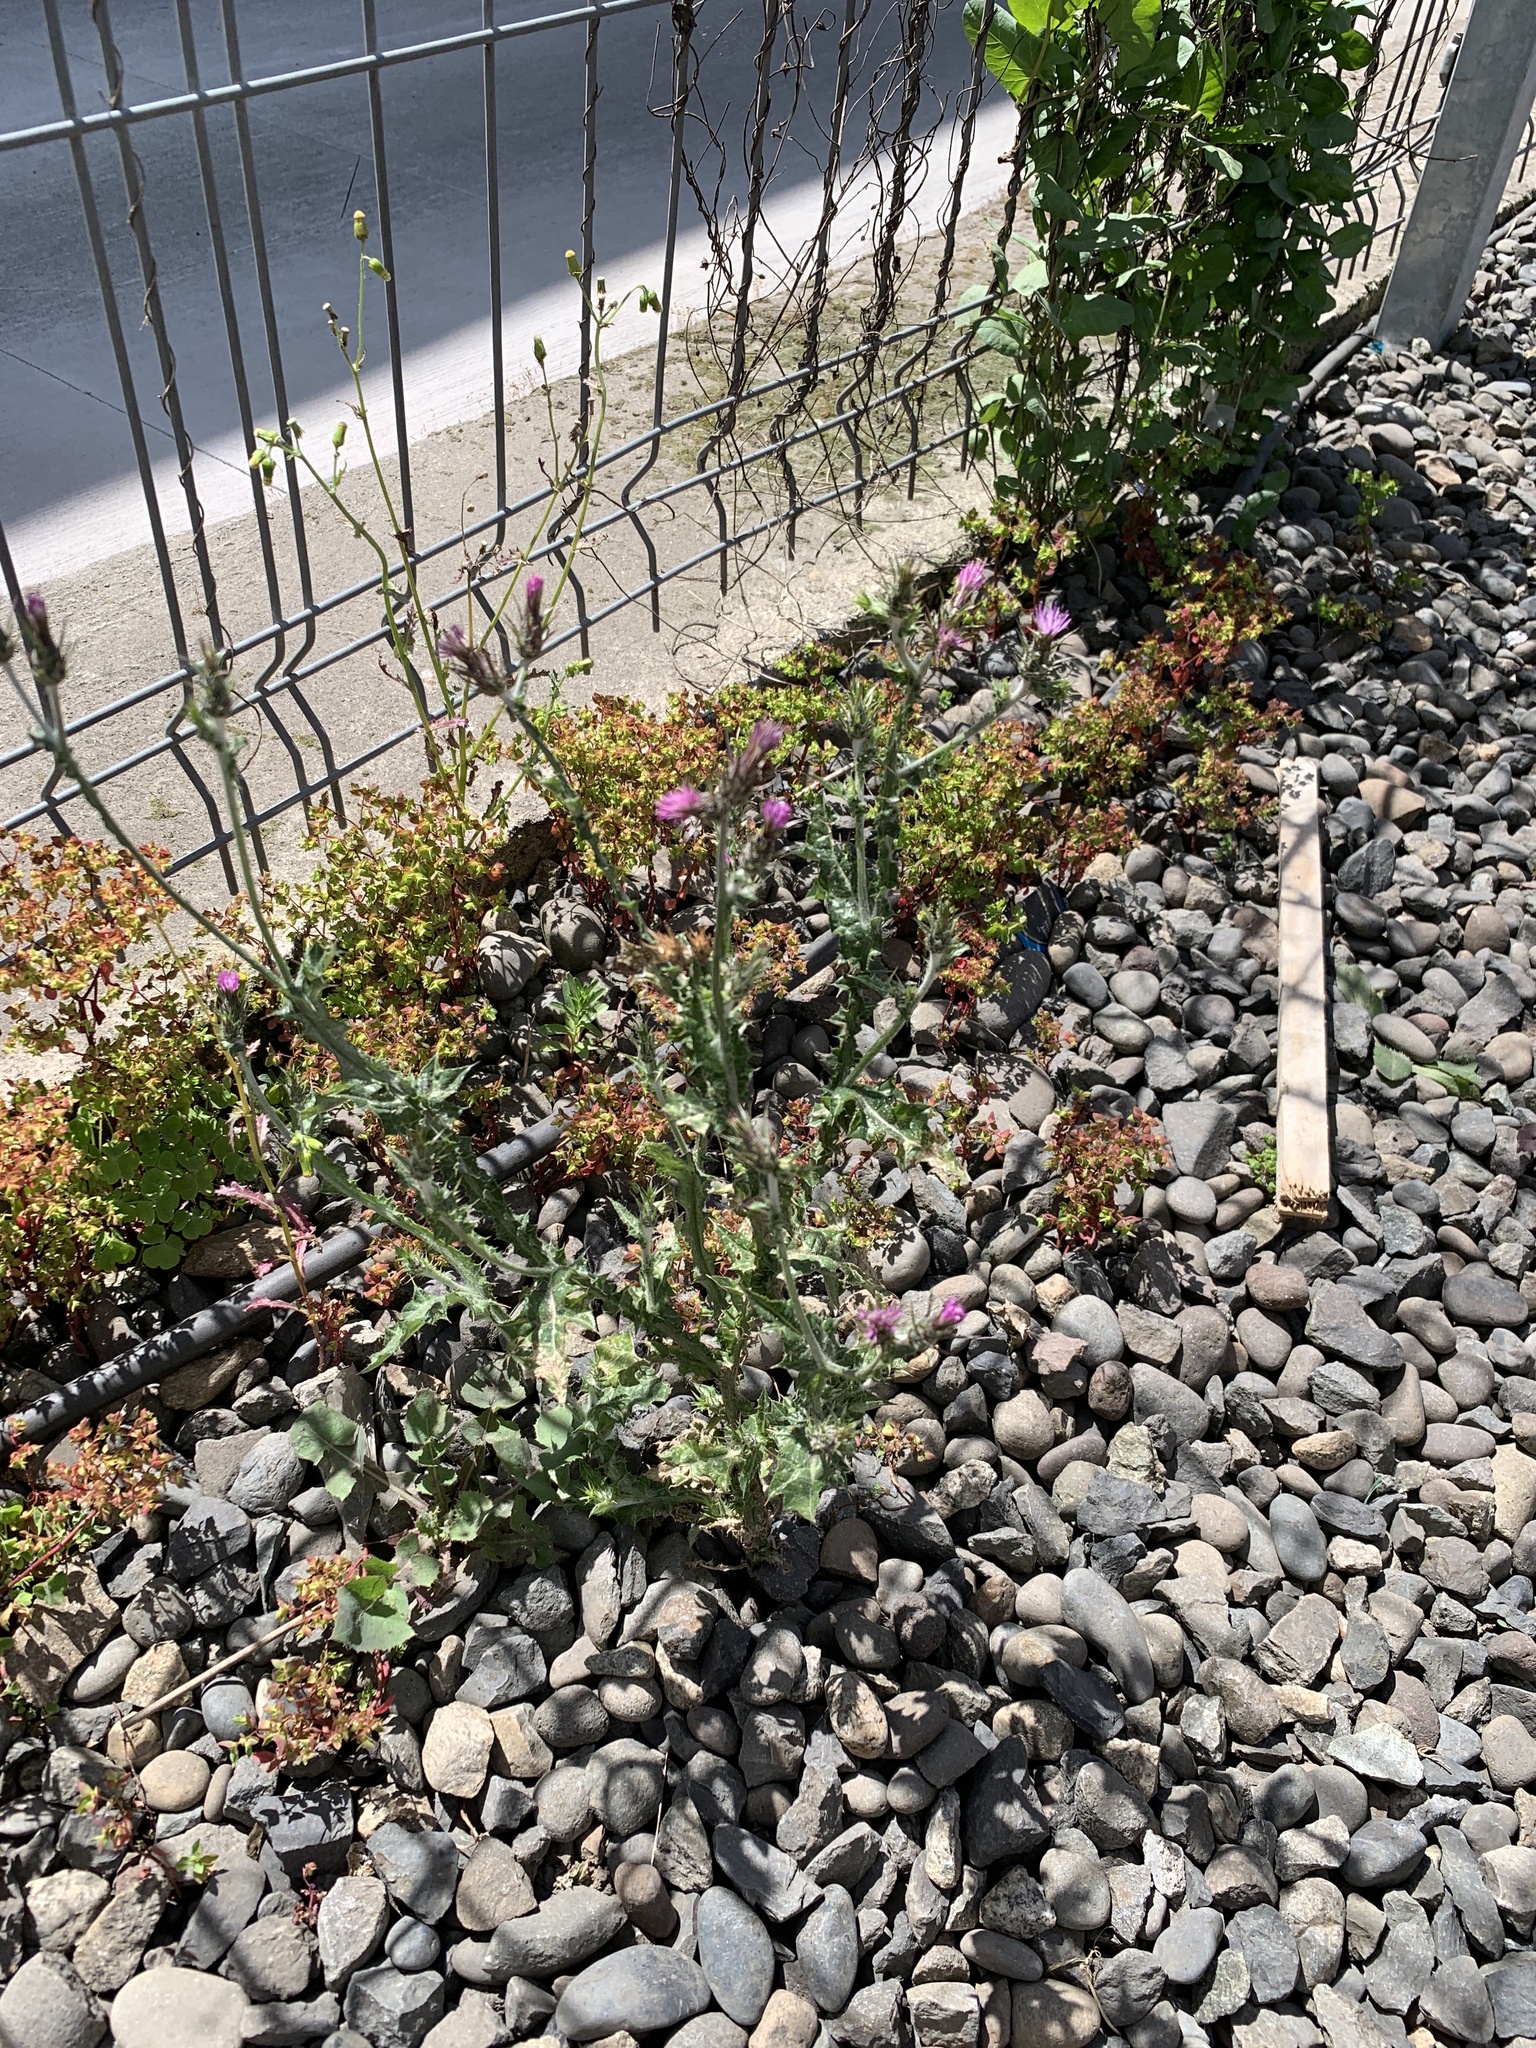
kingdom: Plantae
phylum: Tracheophyta
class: Magnoliopsida
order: Asterales
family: Asteraceae
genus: Carduus
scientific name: Carduus pycnocephalus
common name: Plymouth thistle
